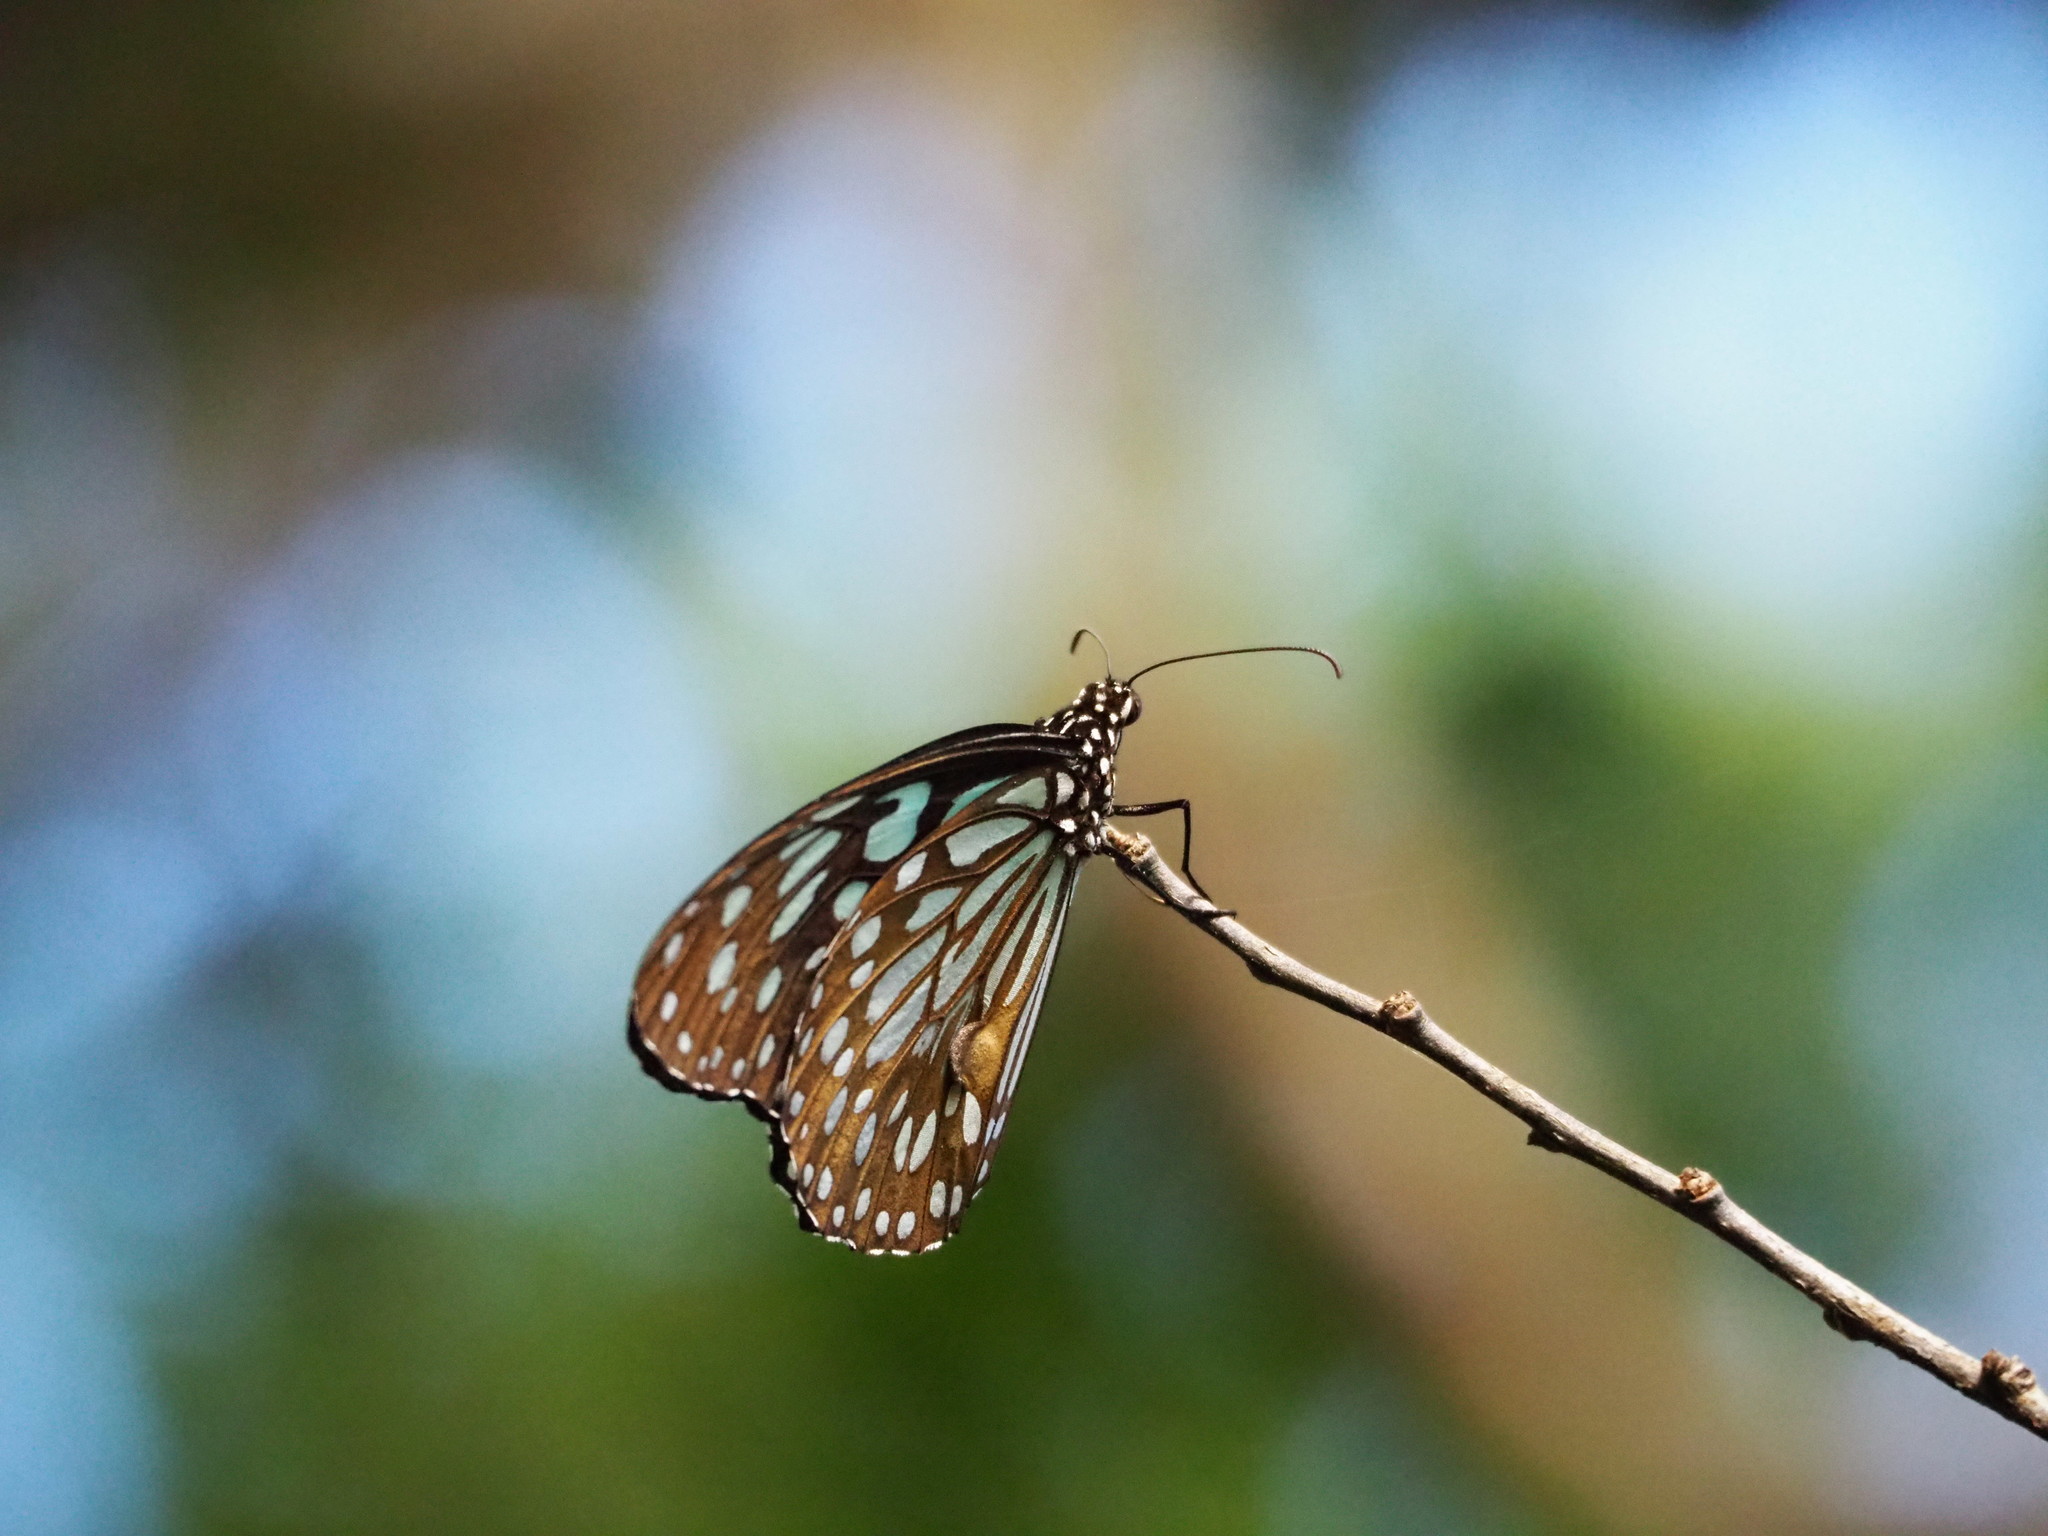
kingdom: Animalia
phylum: Arthropoda
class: Insecta
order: Lepidoptera
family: Nymphalidae
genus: Tirumala
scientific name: Tirumala limniace
